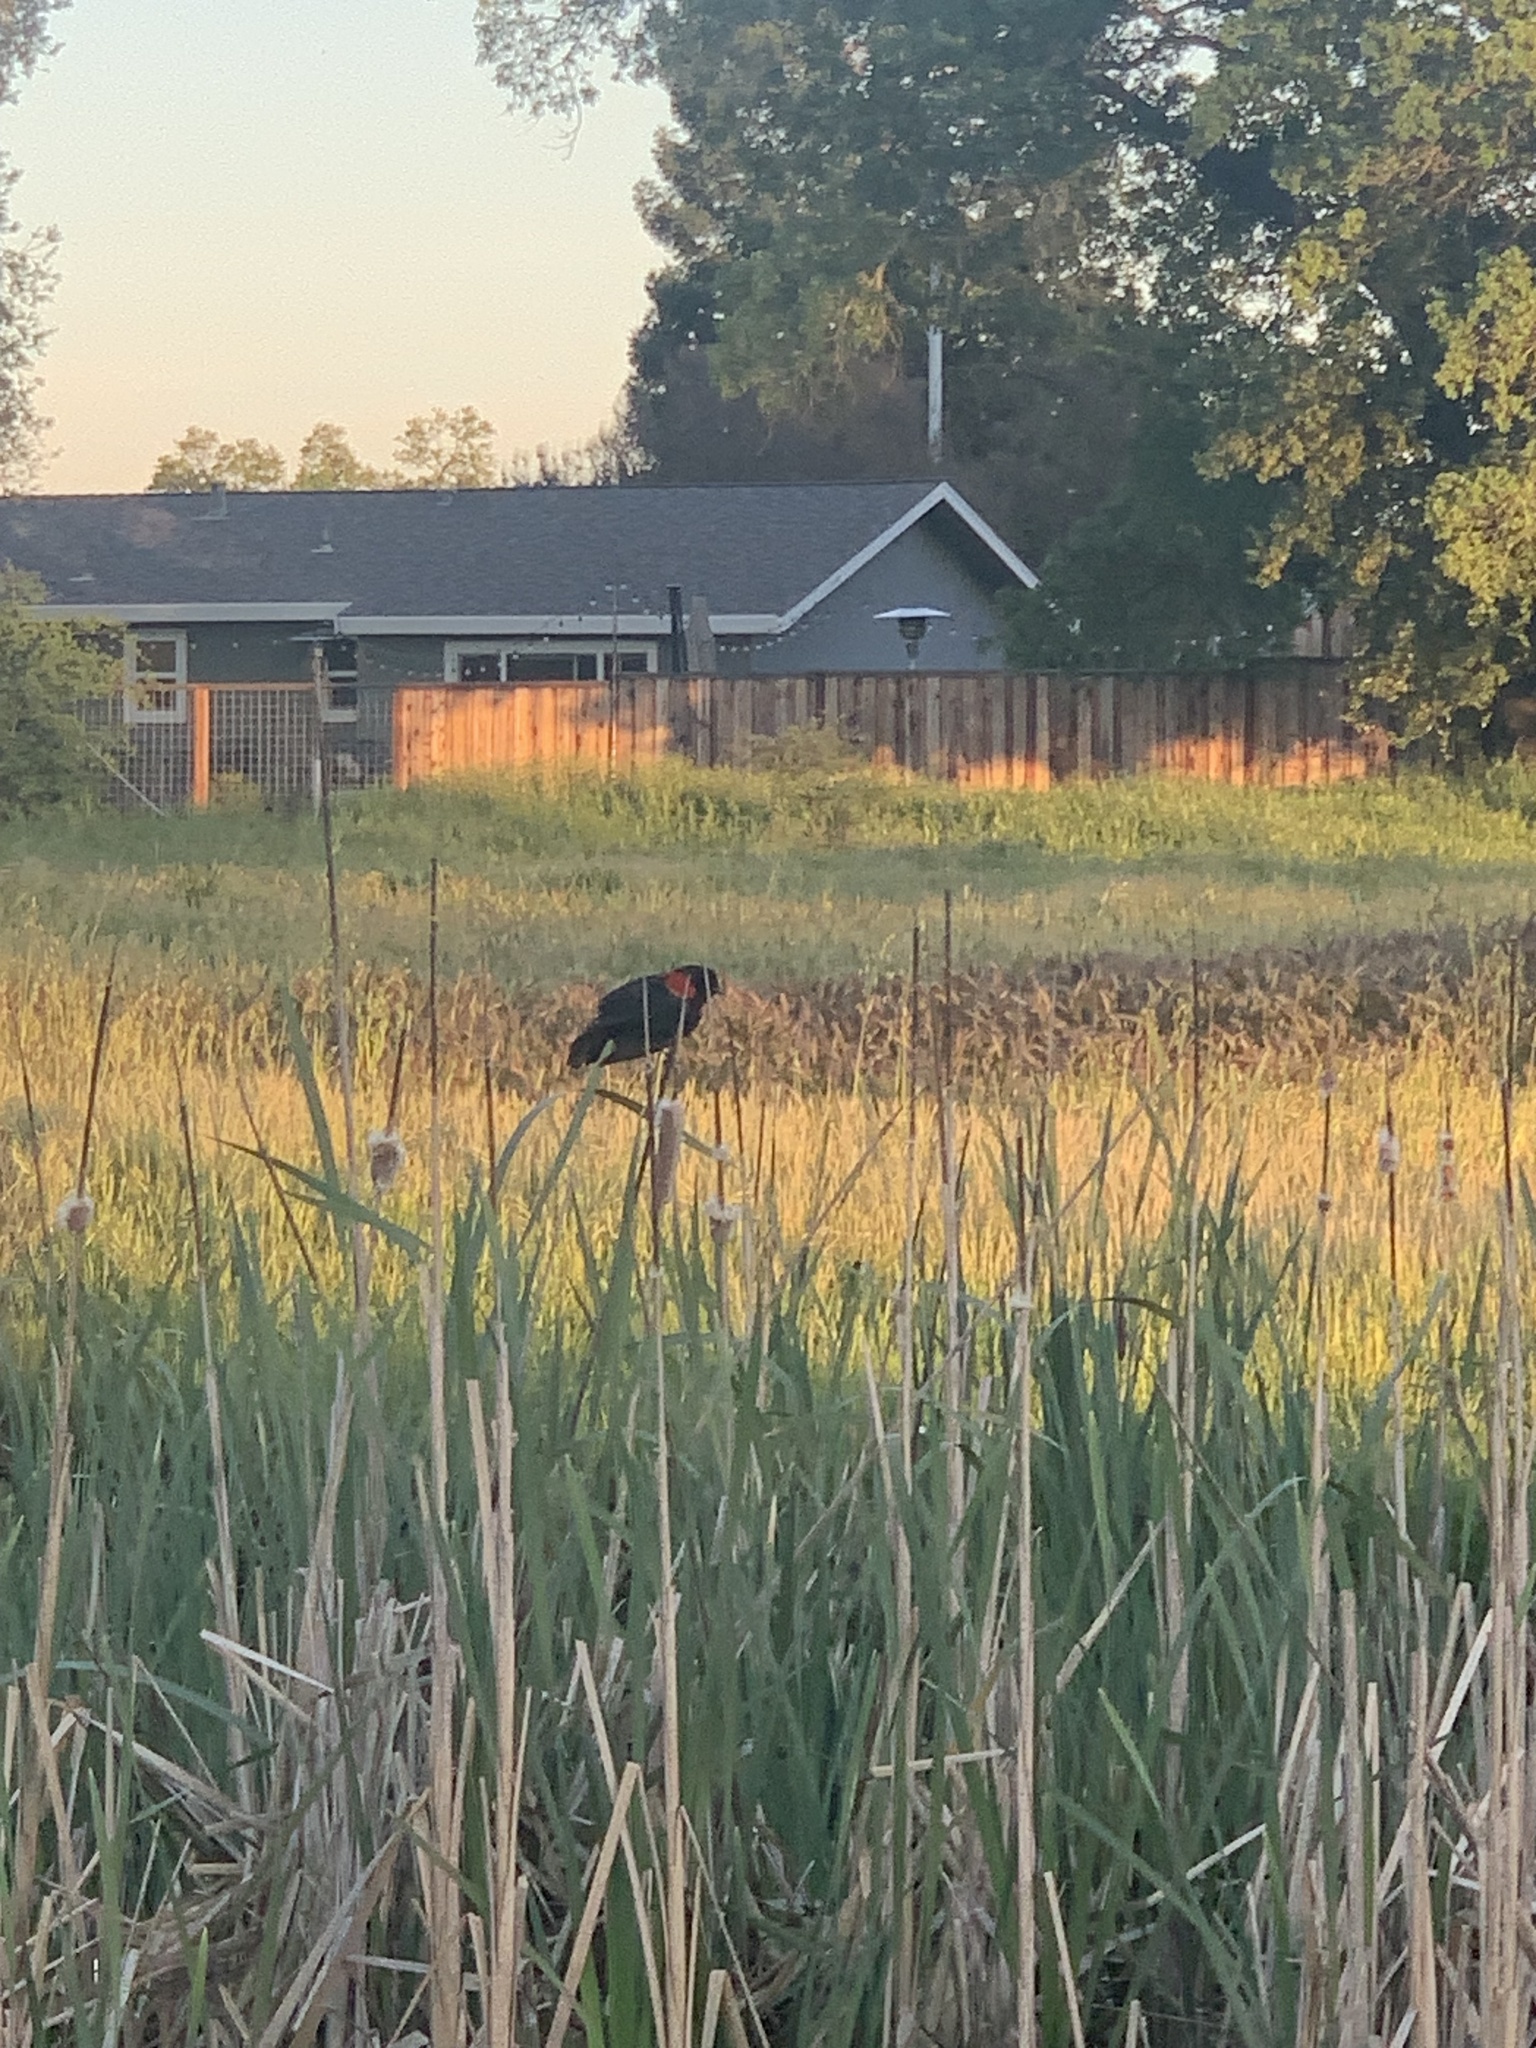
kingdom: Animalia
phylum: Chordata
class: Aves
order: Passeriformes
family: Icteridae
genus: Agelaius
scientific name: Agelaius phoeniceus
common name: Red-winged blackbird
